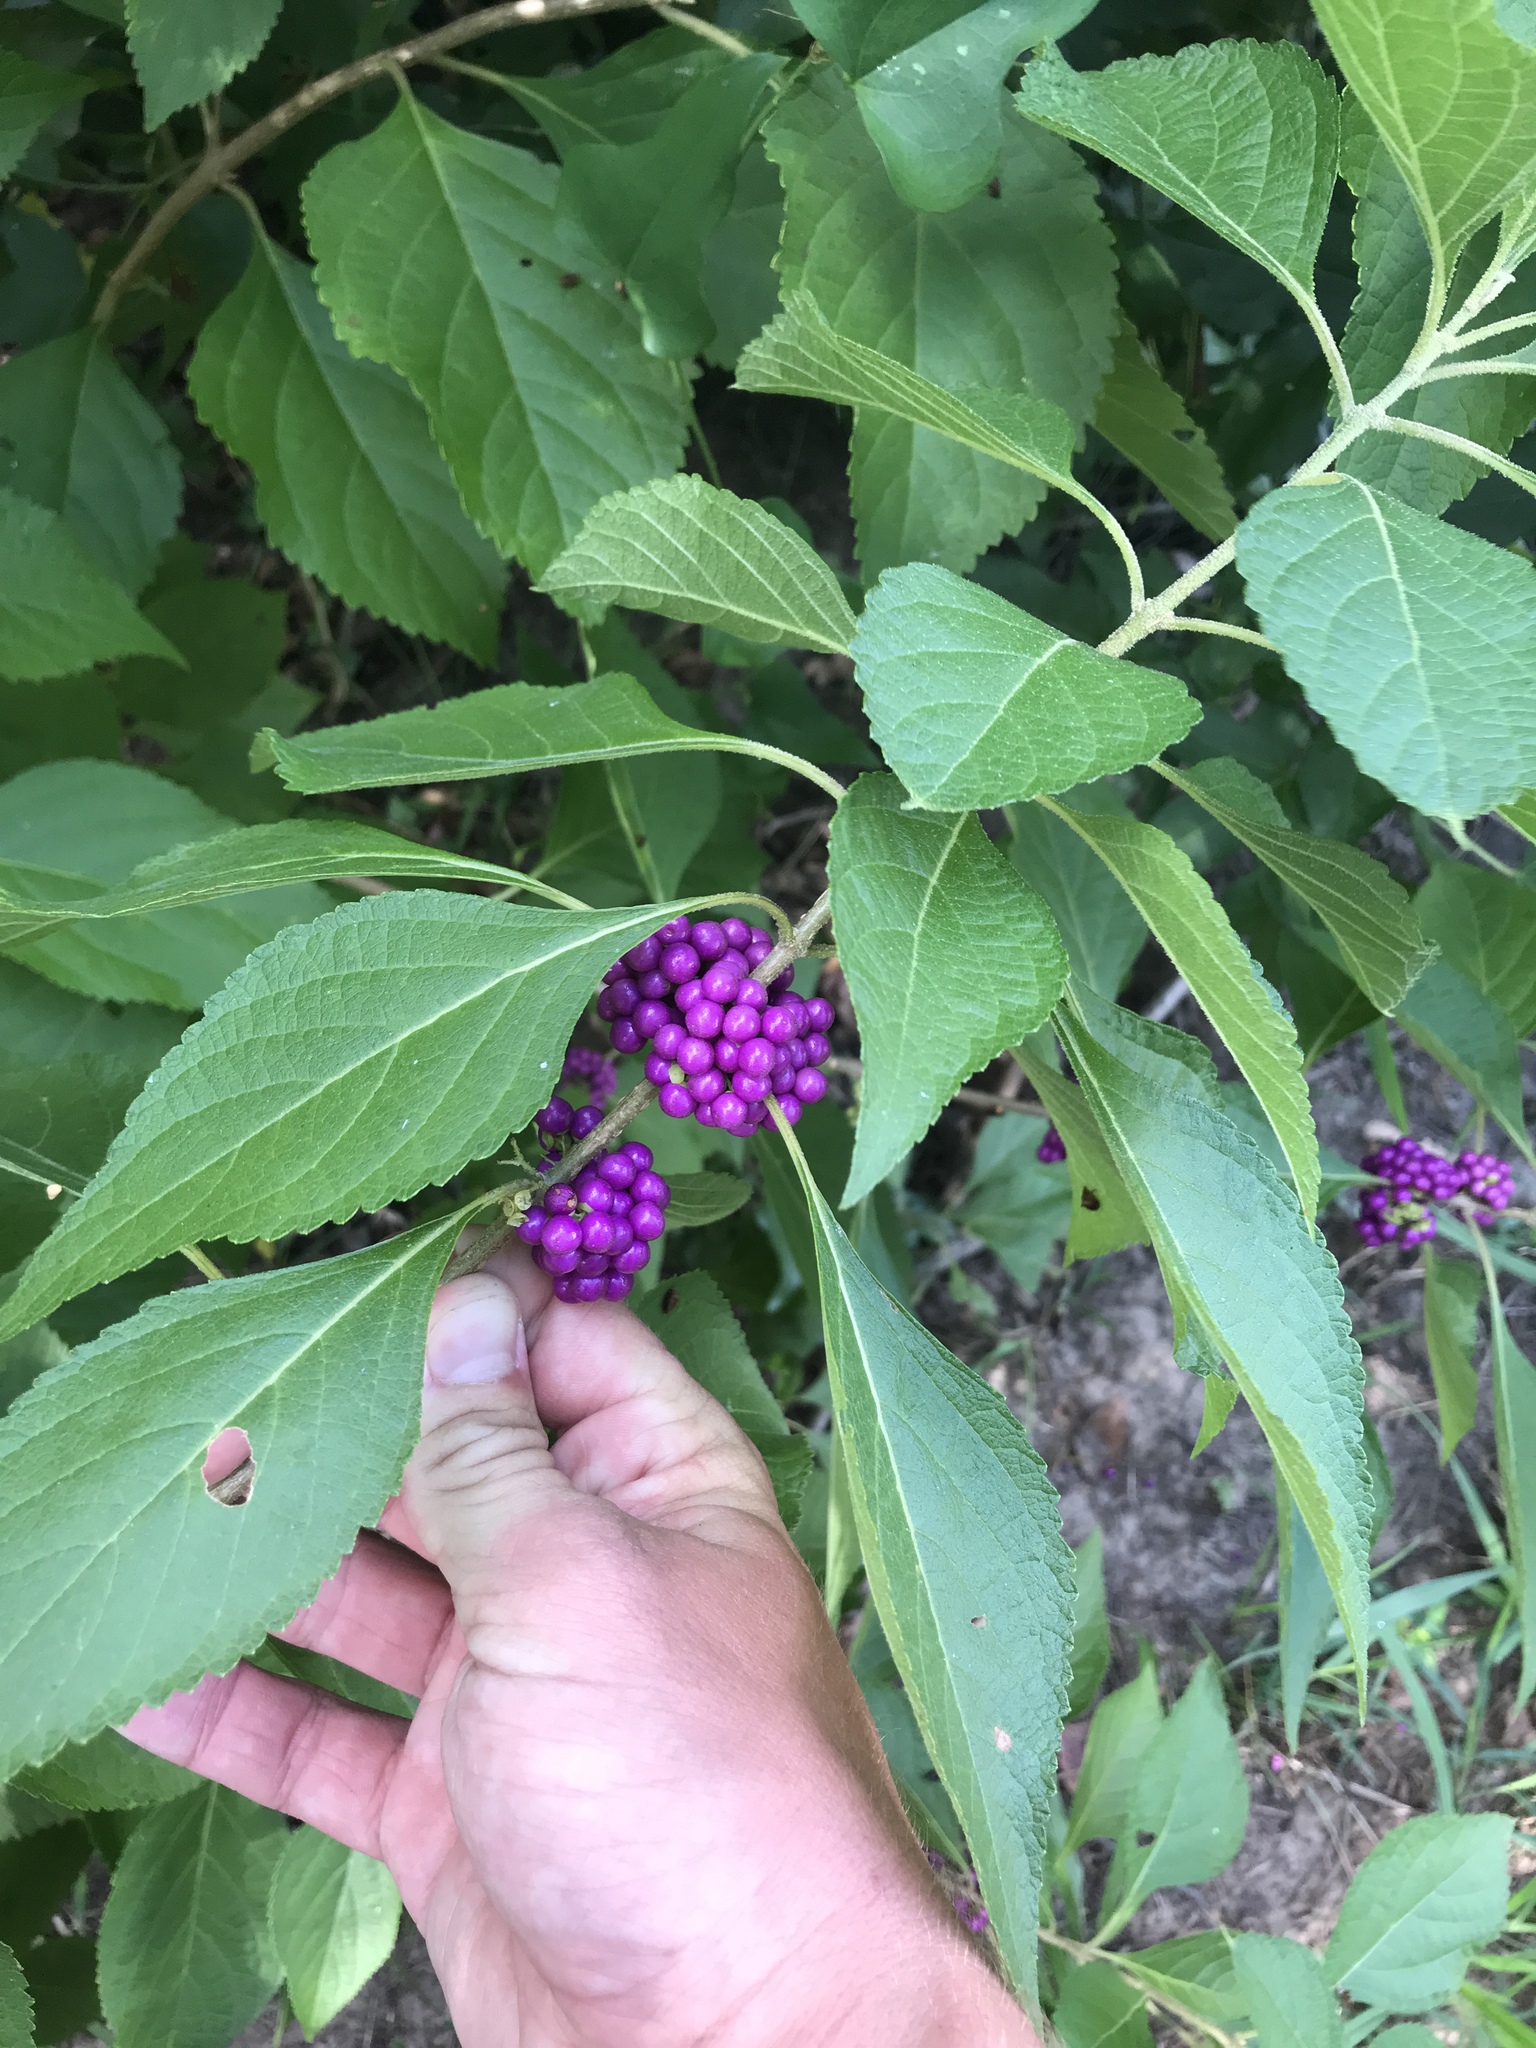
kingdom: Plantae
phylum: Tracheophyta
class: Magnoliopsida
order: Lamiales
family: Lamiaceae
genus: Callicarpa
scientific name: Callicarpa americana
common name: American beautyberry
